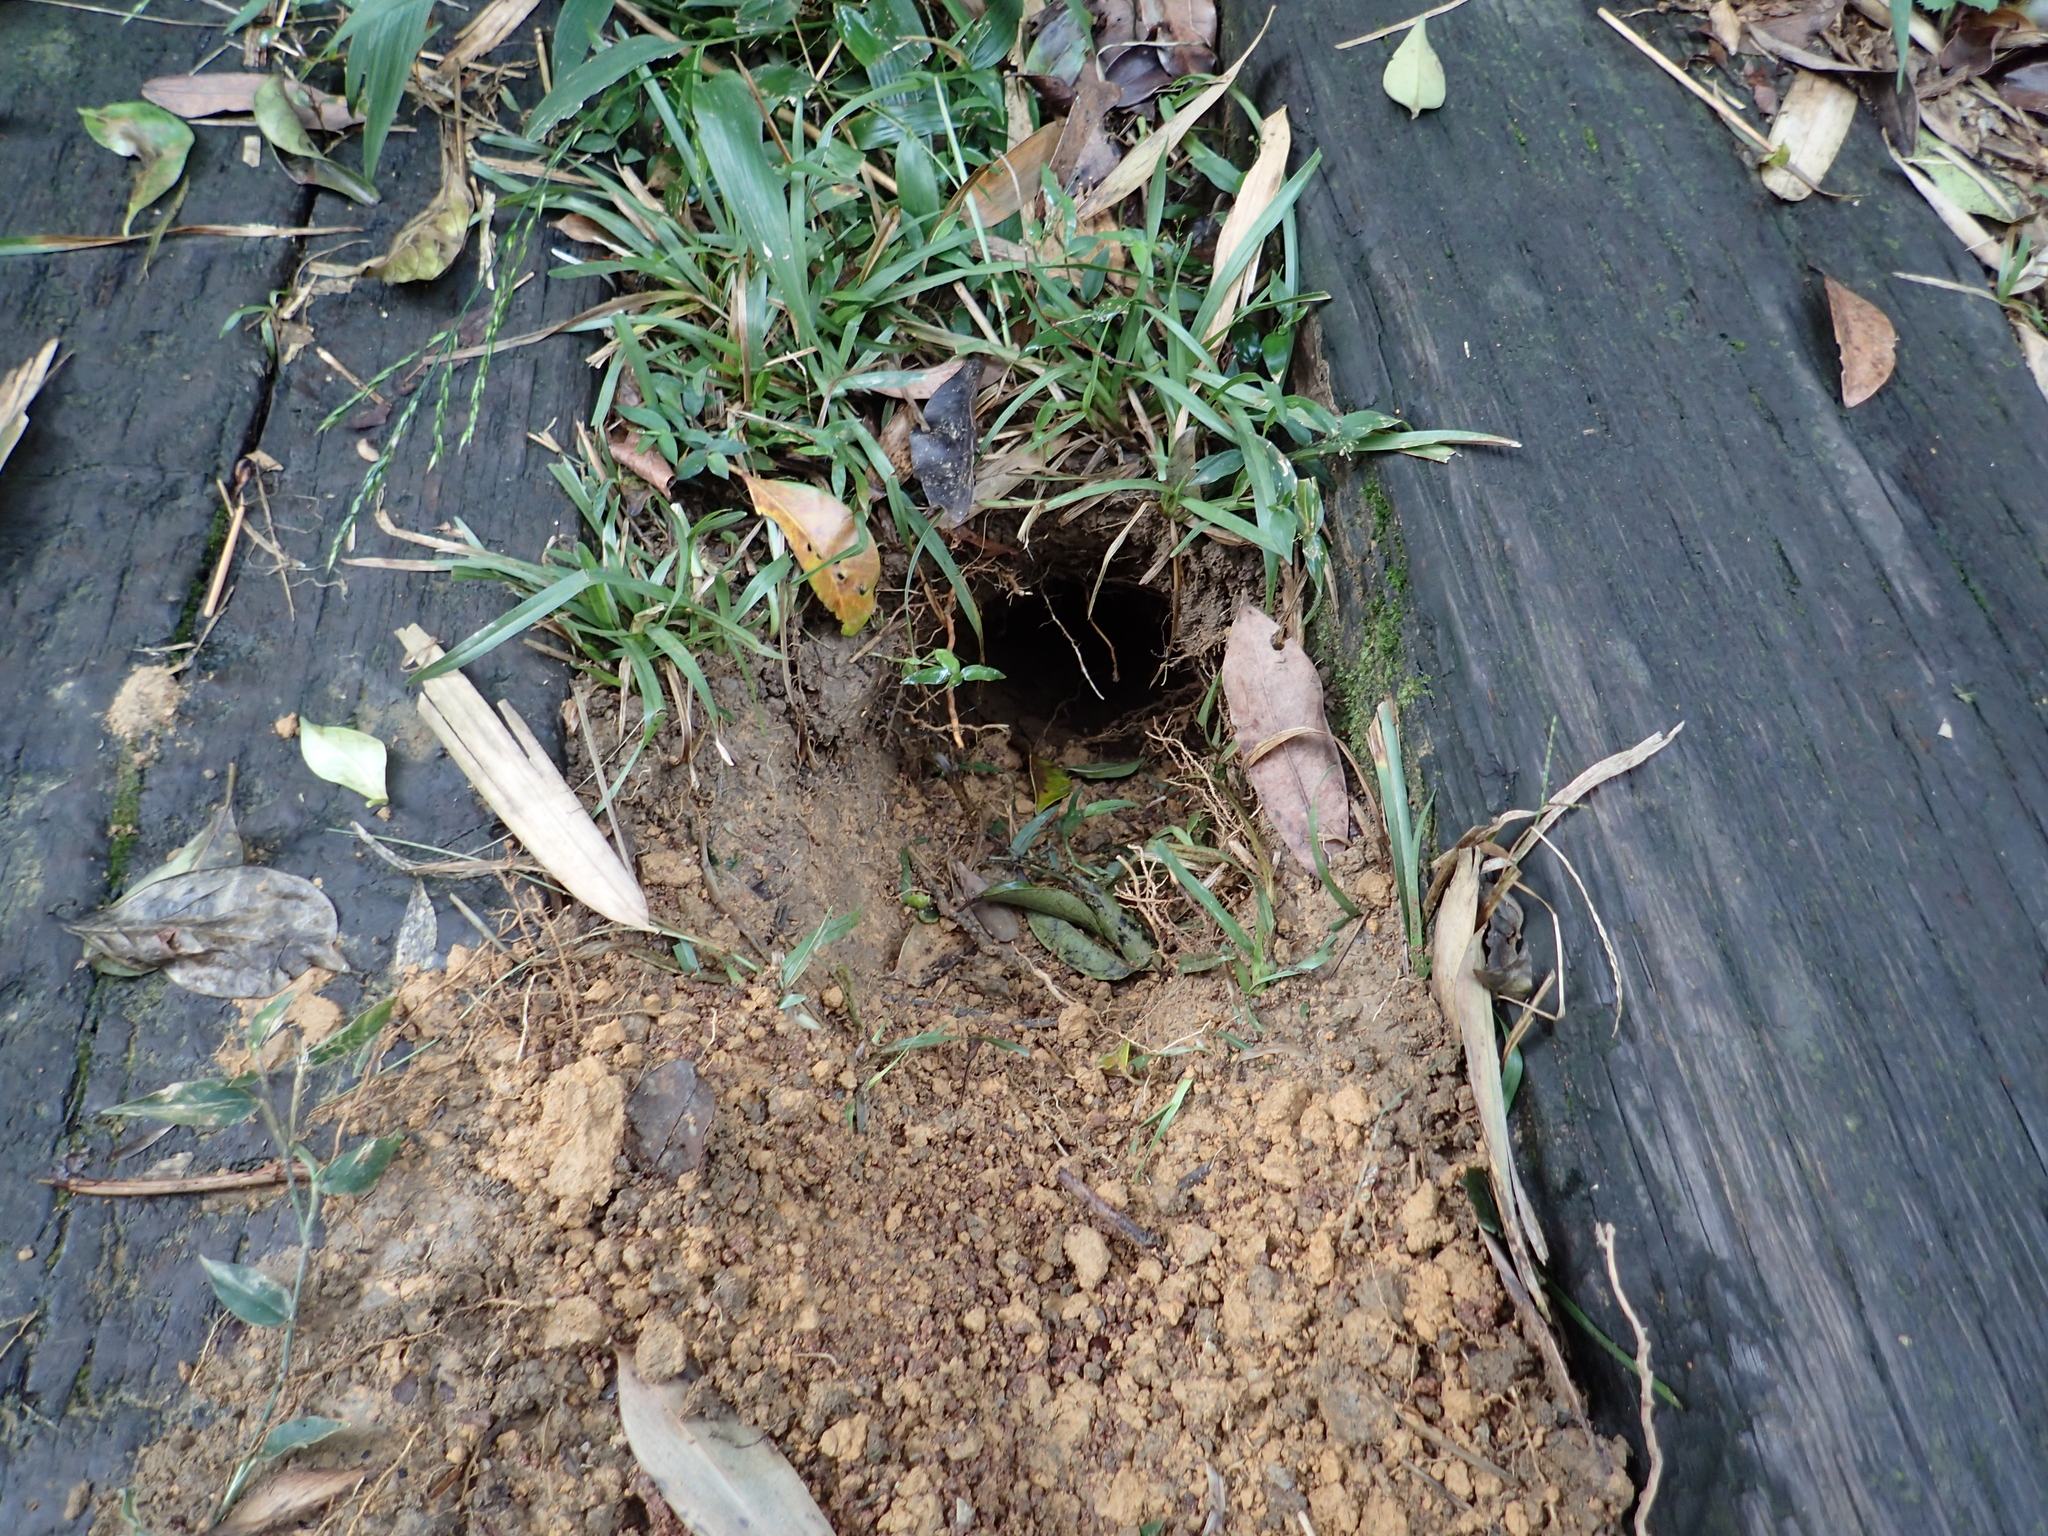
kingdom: Animalia
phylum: Chordata
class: Mammalia
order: Pholidota
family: Manidae
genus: Manis
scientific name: Manis pentadactyla
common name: Chinese pangolin
